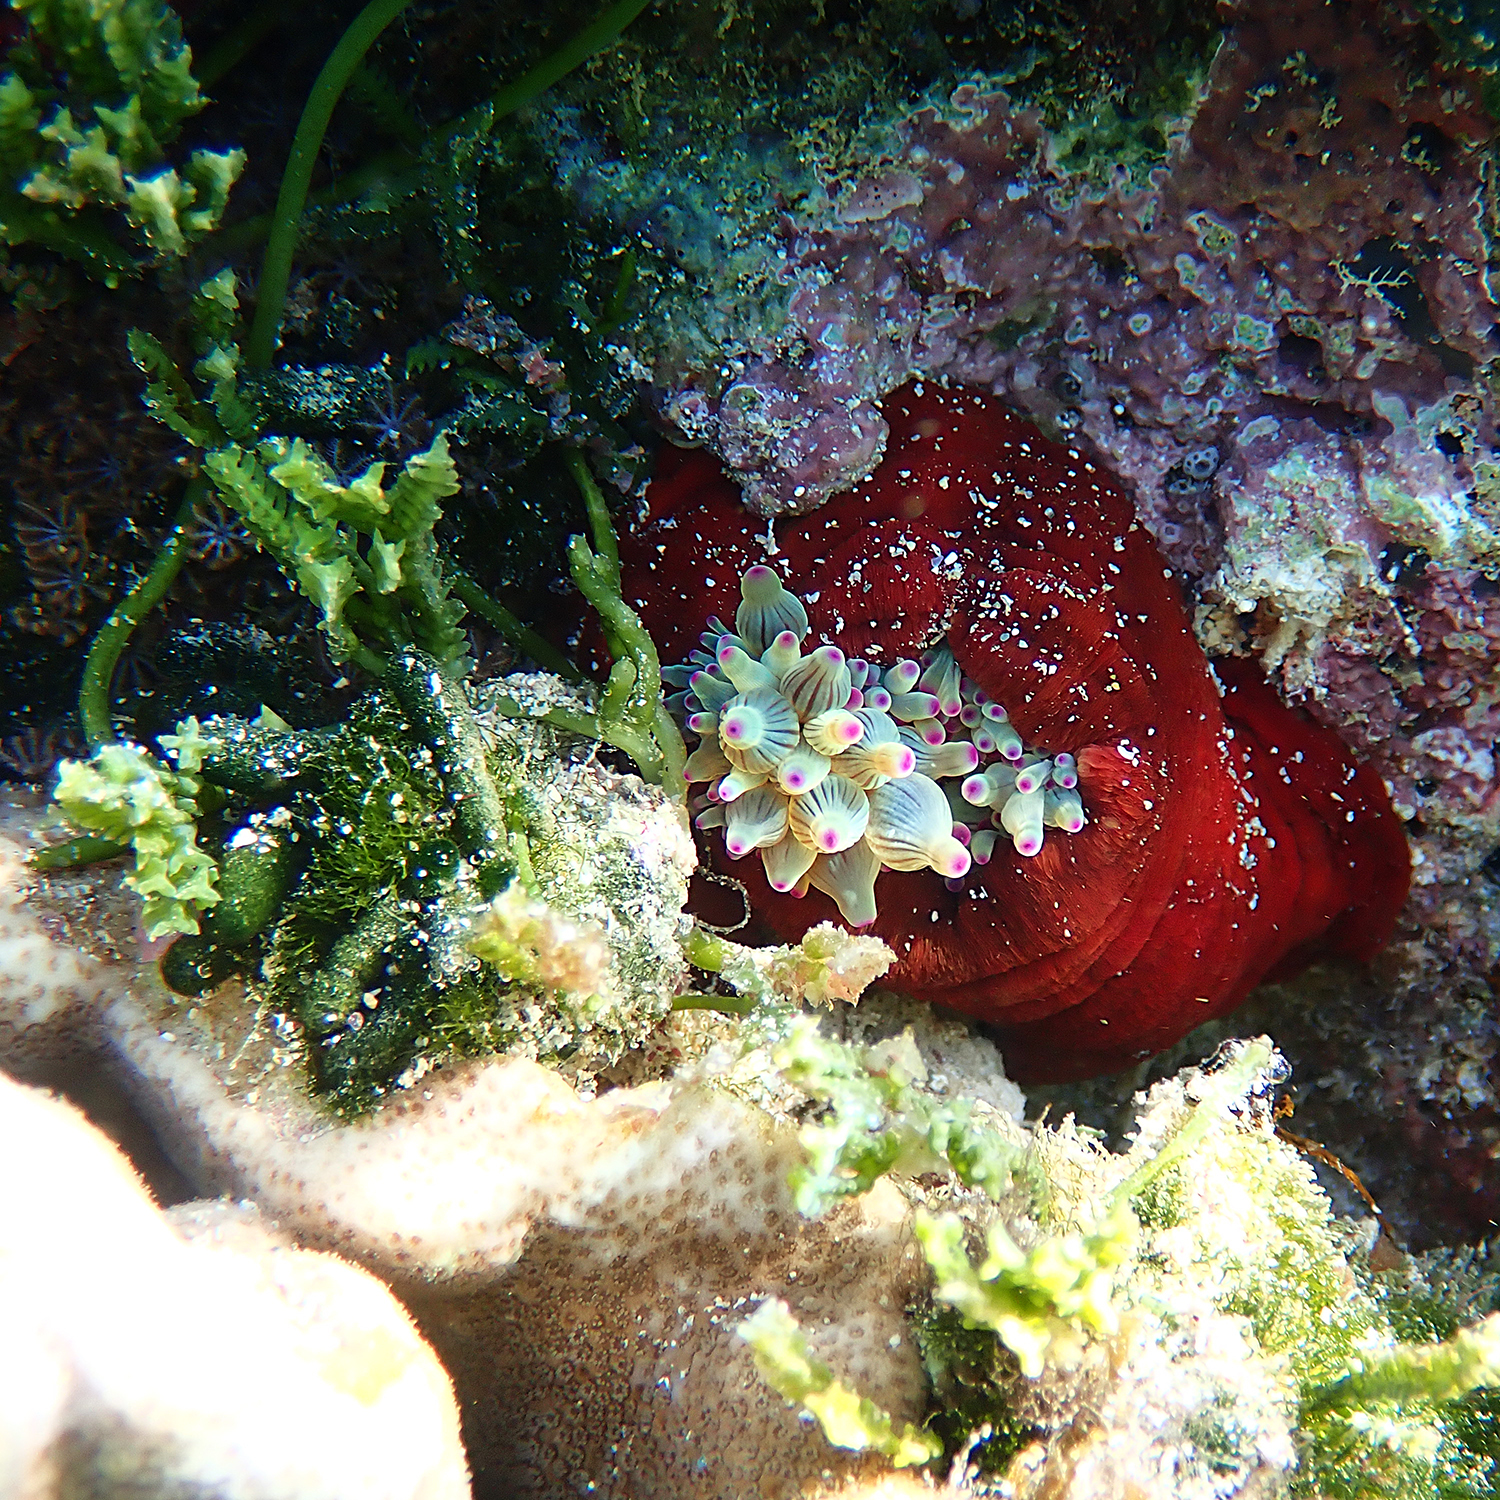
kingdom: Animalia
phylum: Cnidaria
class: Anthozoa
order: Actiniaria
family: Actiniidae
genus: Entacmaea
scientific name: Entacmaea quadricolor
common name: Bulb tentacle sea anemone
